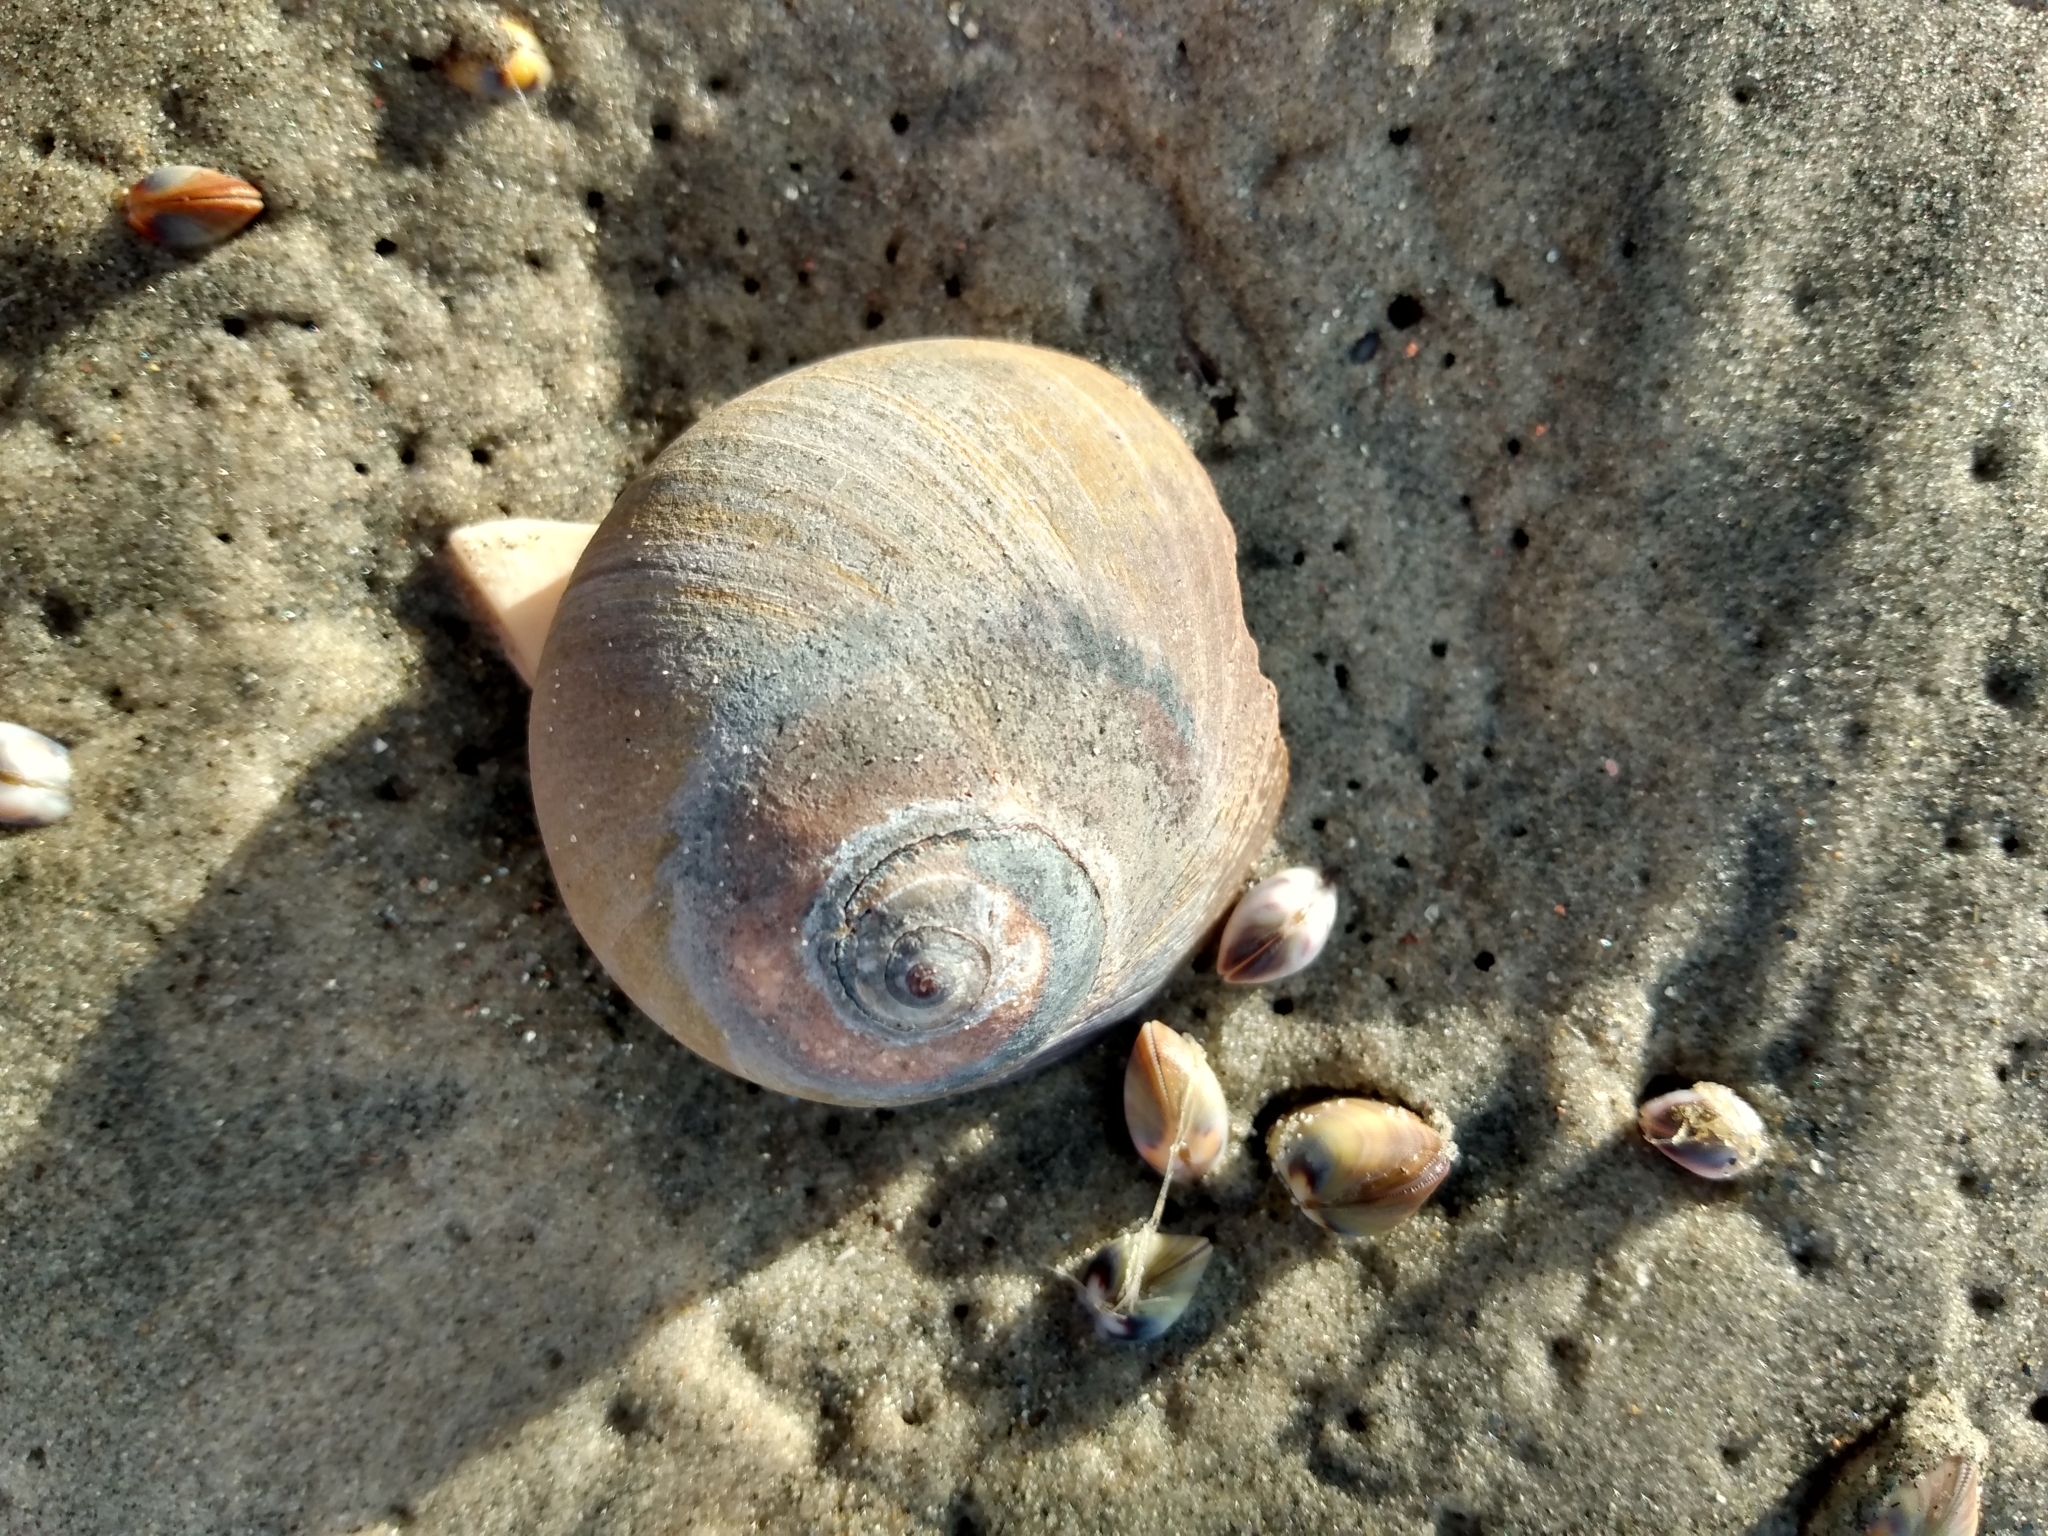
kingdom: Animalia
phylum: Mollusca
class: Gastropoda
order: Littorinimorpha
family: Naticidae
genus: Glossaulax
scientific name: Glossaulax reclusiana
